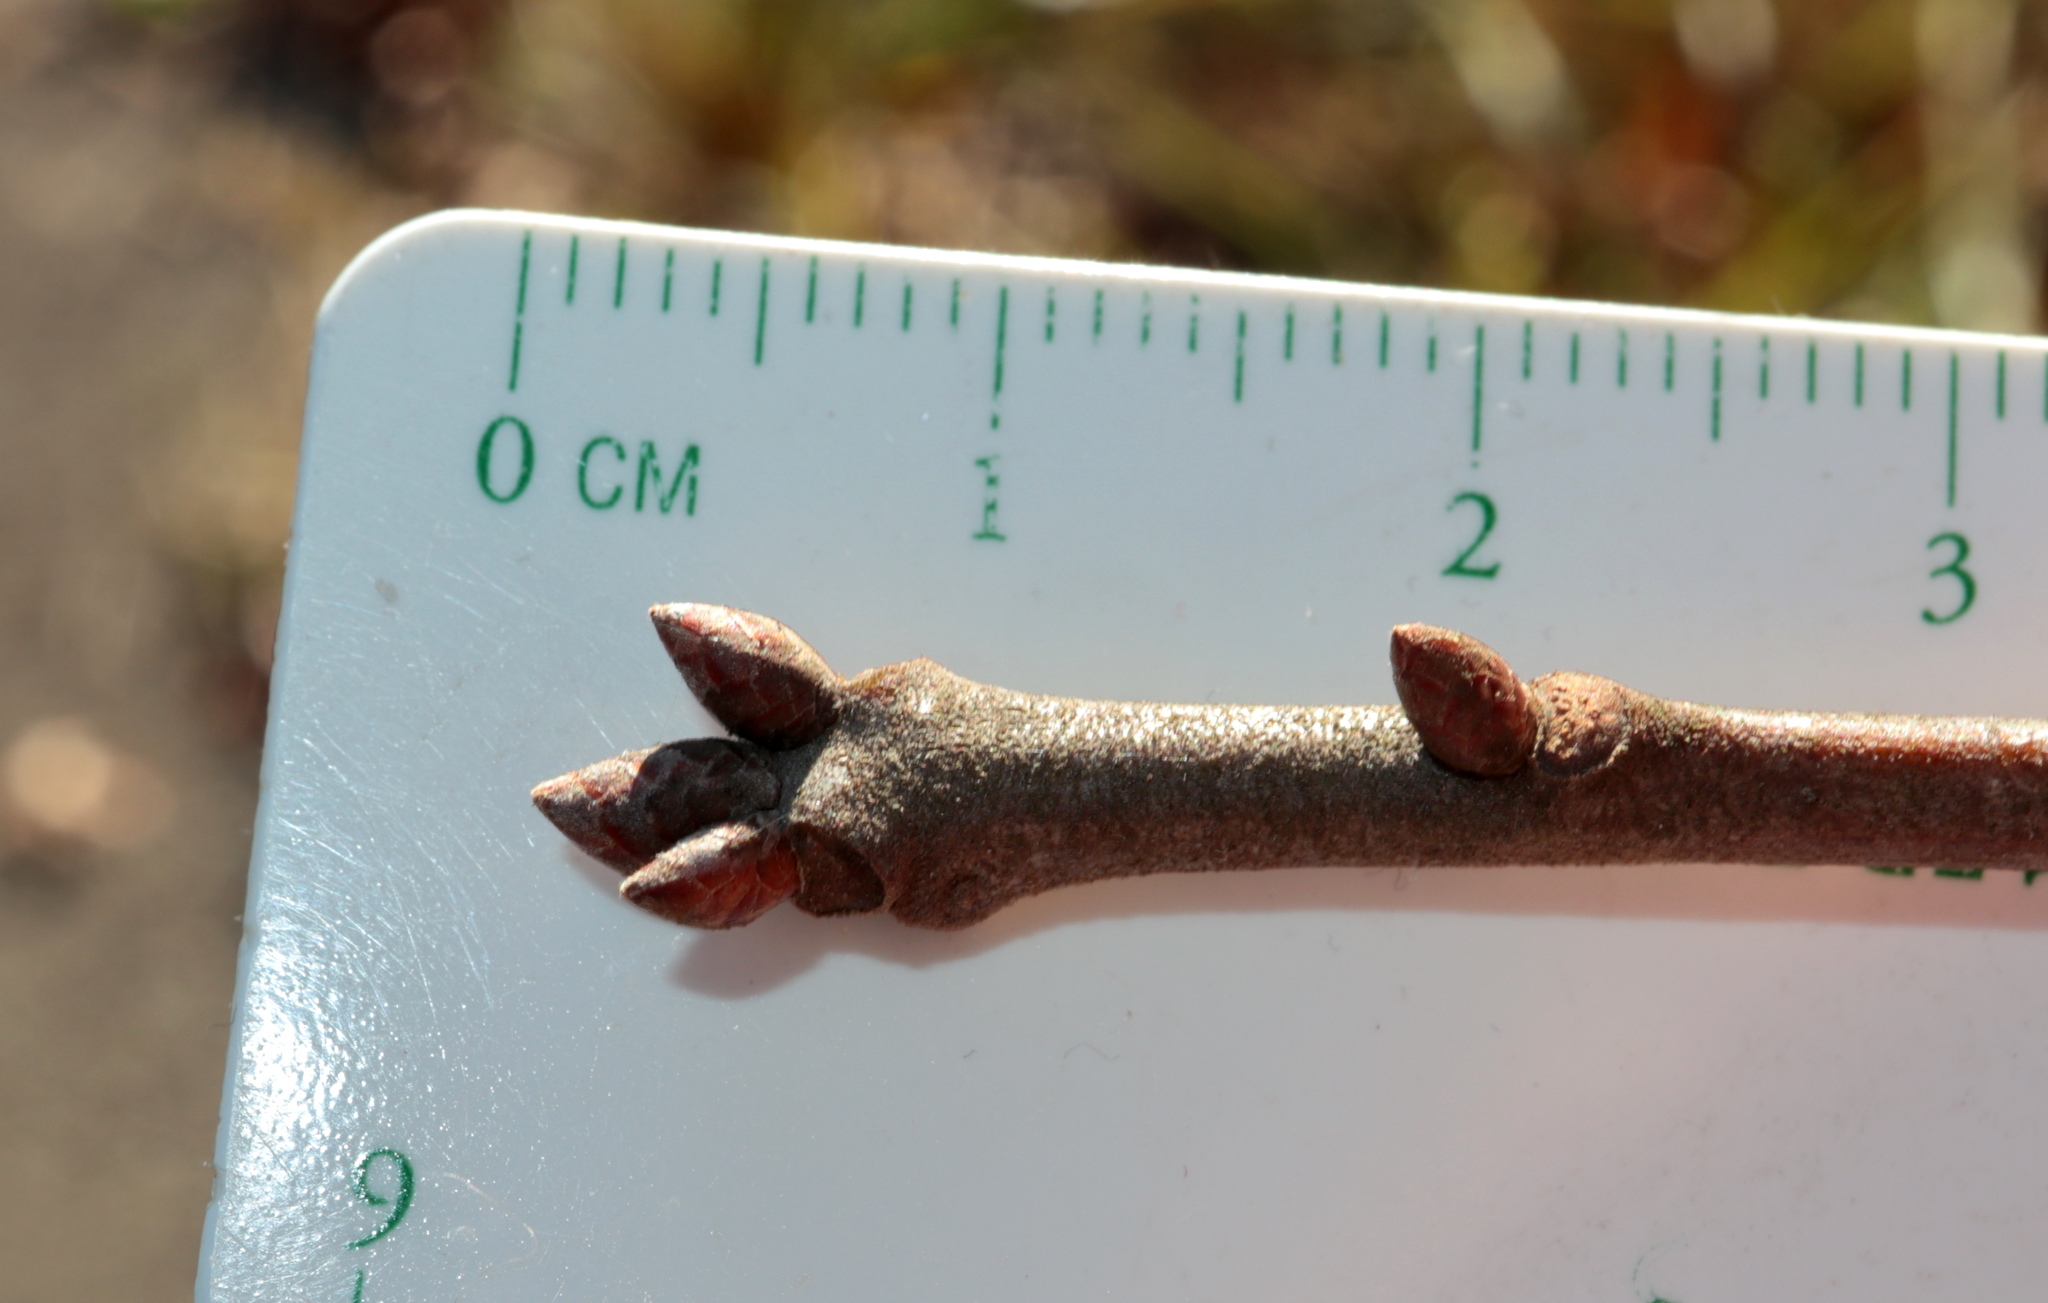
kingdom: Plantae
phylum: Tracheophyta
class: Magnoliopsida
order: Fagales
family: Fagaceae
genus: Quercus
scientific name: Quercus falcata
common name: Southern red oak
